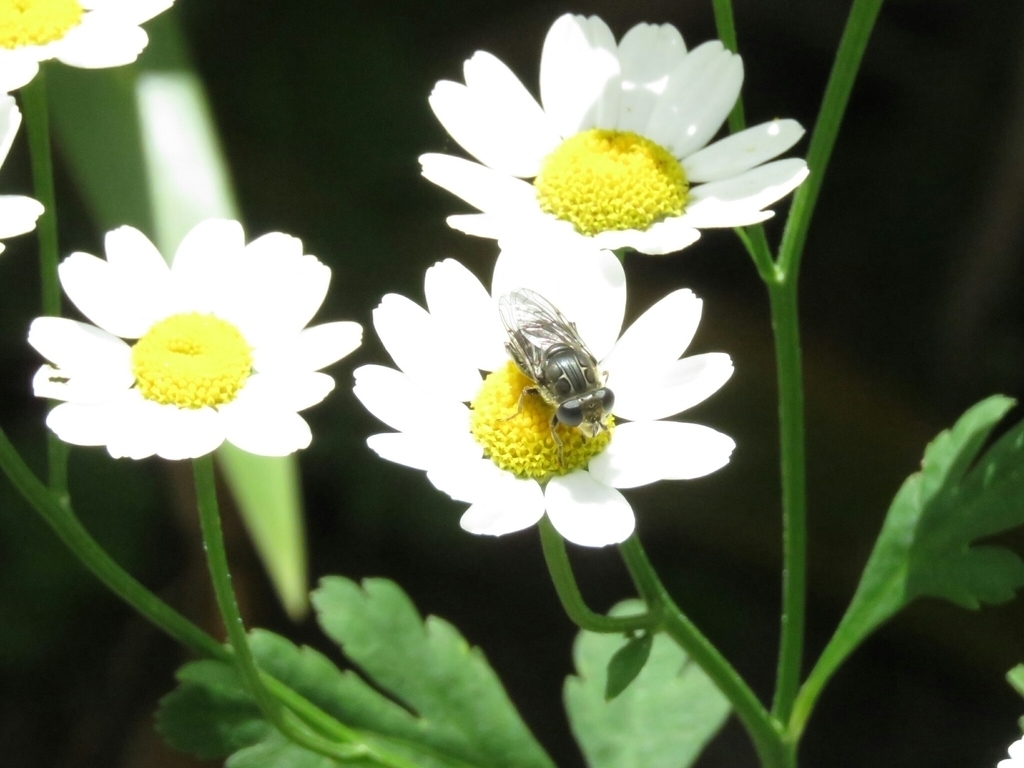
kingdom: Plantae
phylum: Tracheophyta
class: Magnoliopsida
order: Asterales
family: Asteraceae
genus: Tanacetum
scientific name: Tanacetum parthenium
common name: Feverfew
